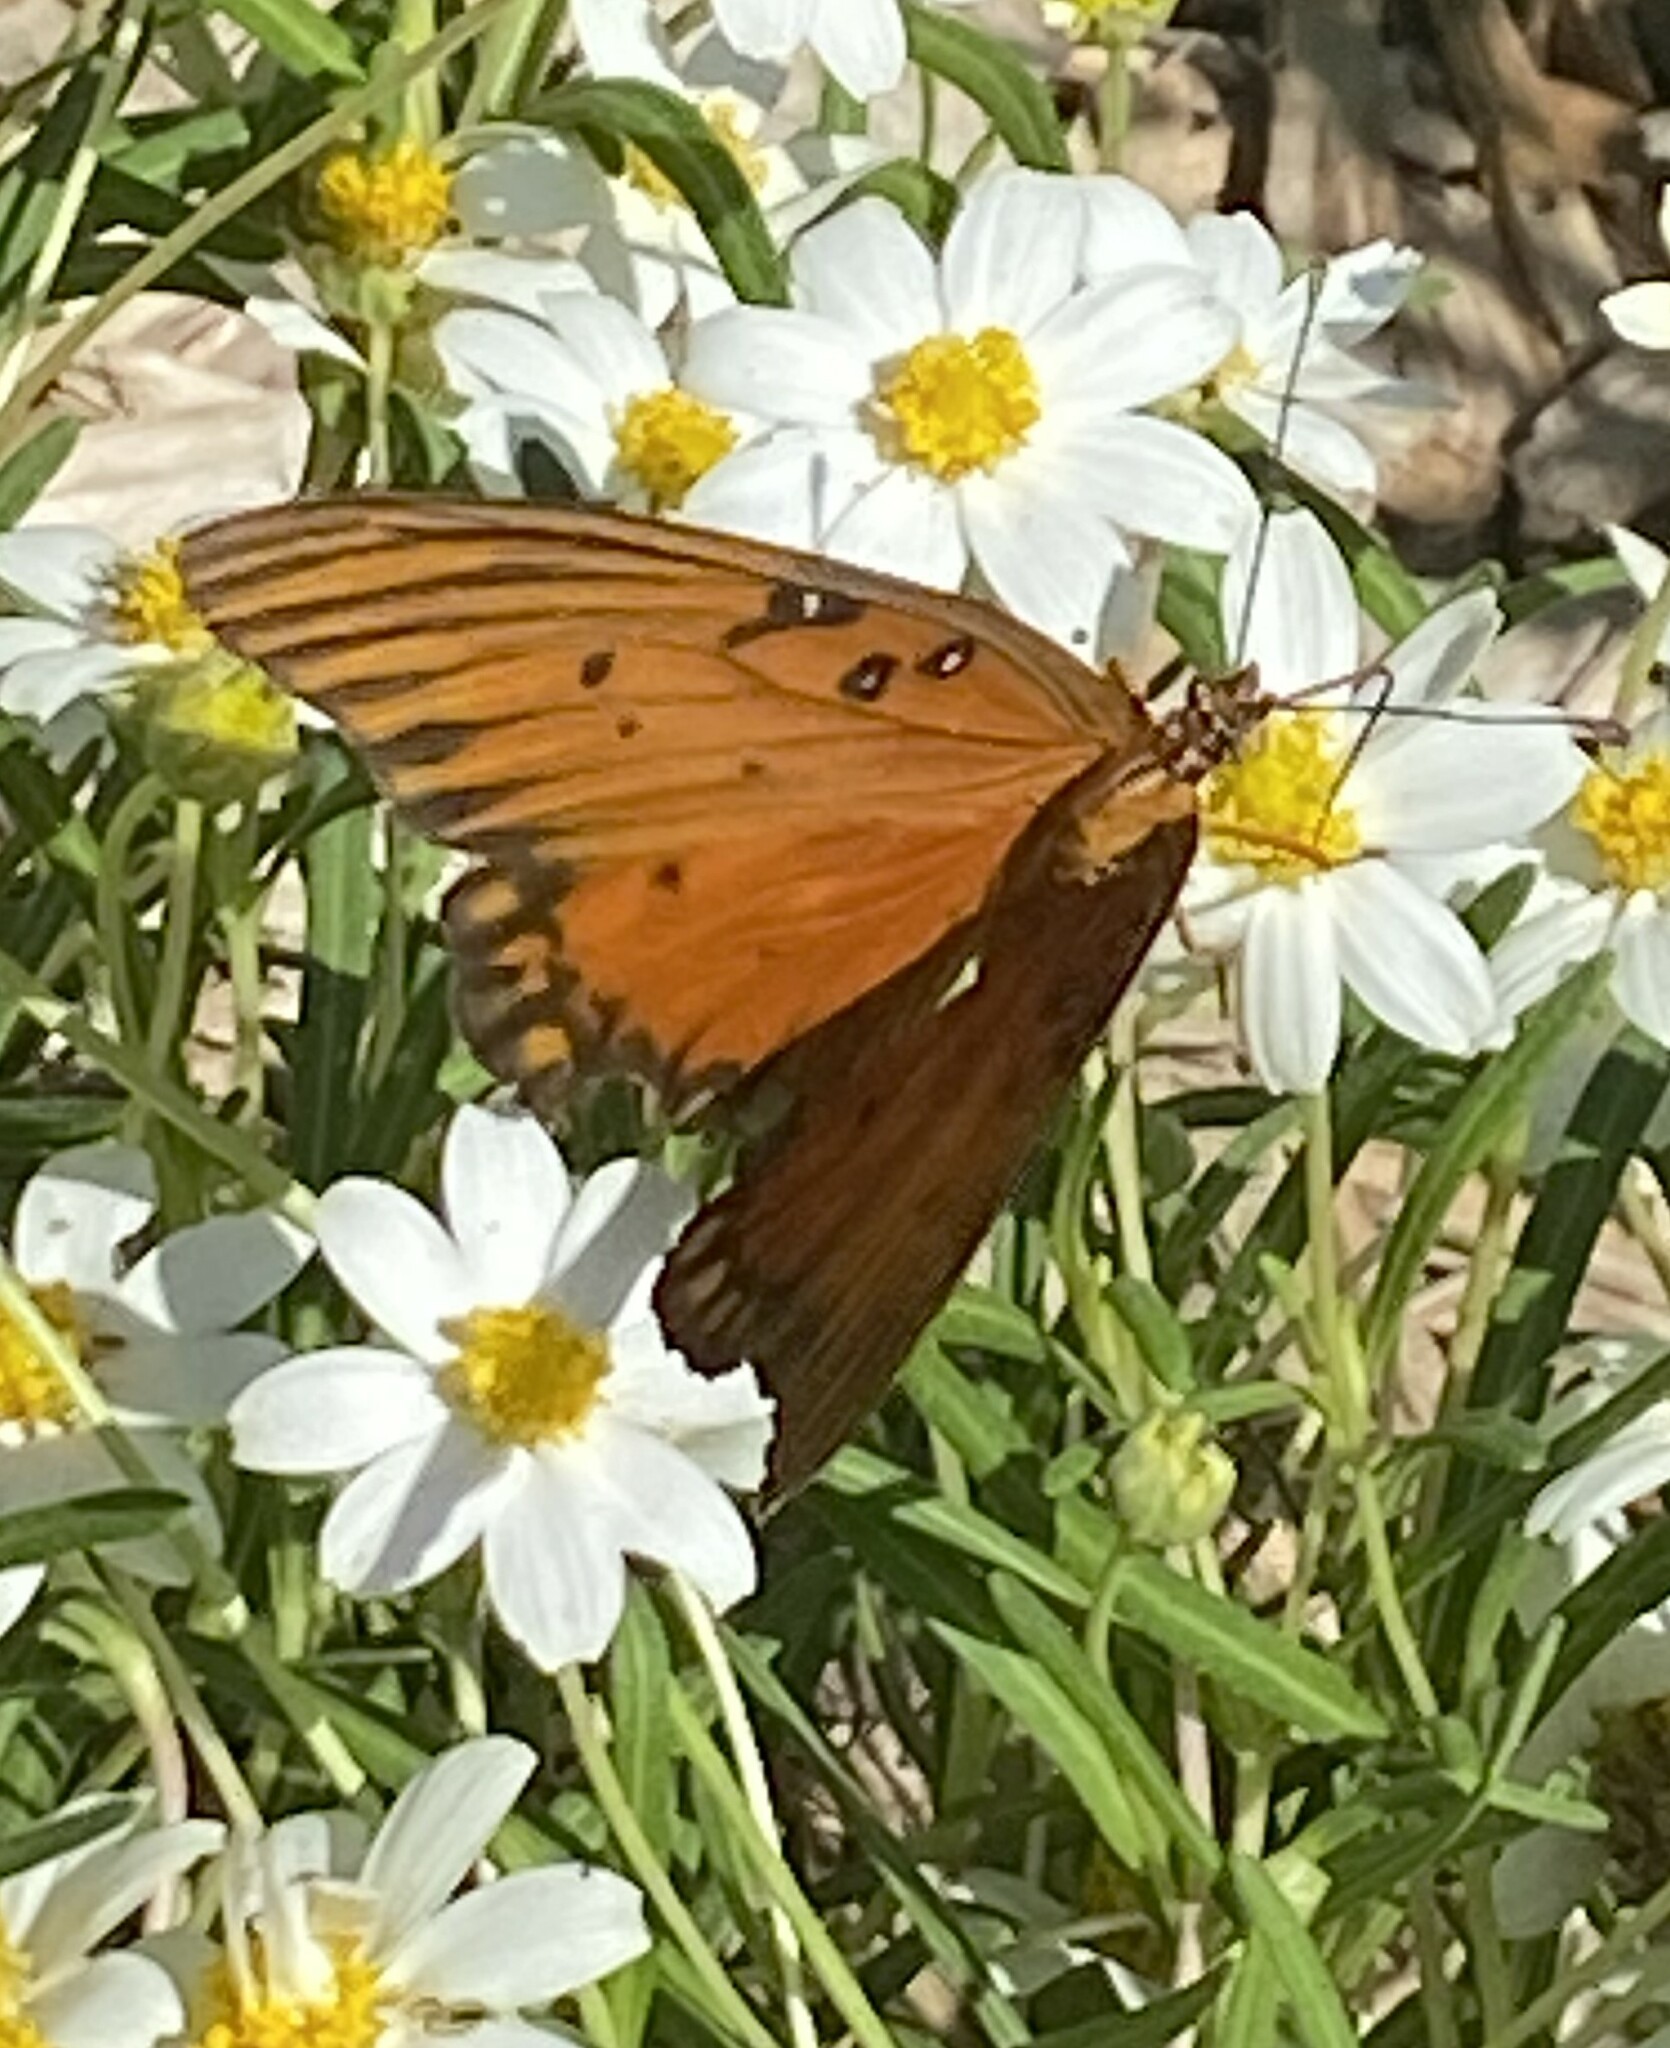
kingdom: Animalia
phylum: Arthropoda
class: Insecta
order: Lepidoptera
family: Nymphalidae
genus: Dione
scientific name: Dione vanillae
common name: Gulf fritillary
